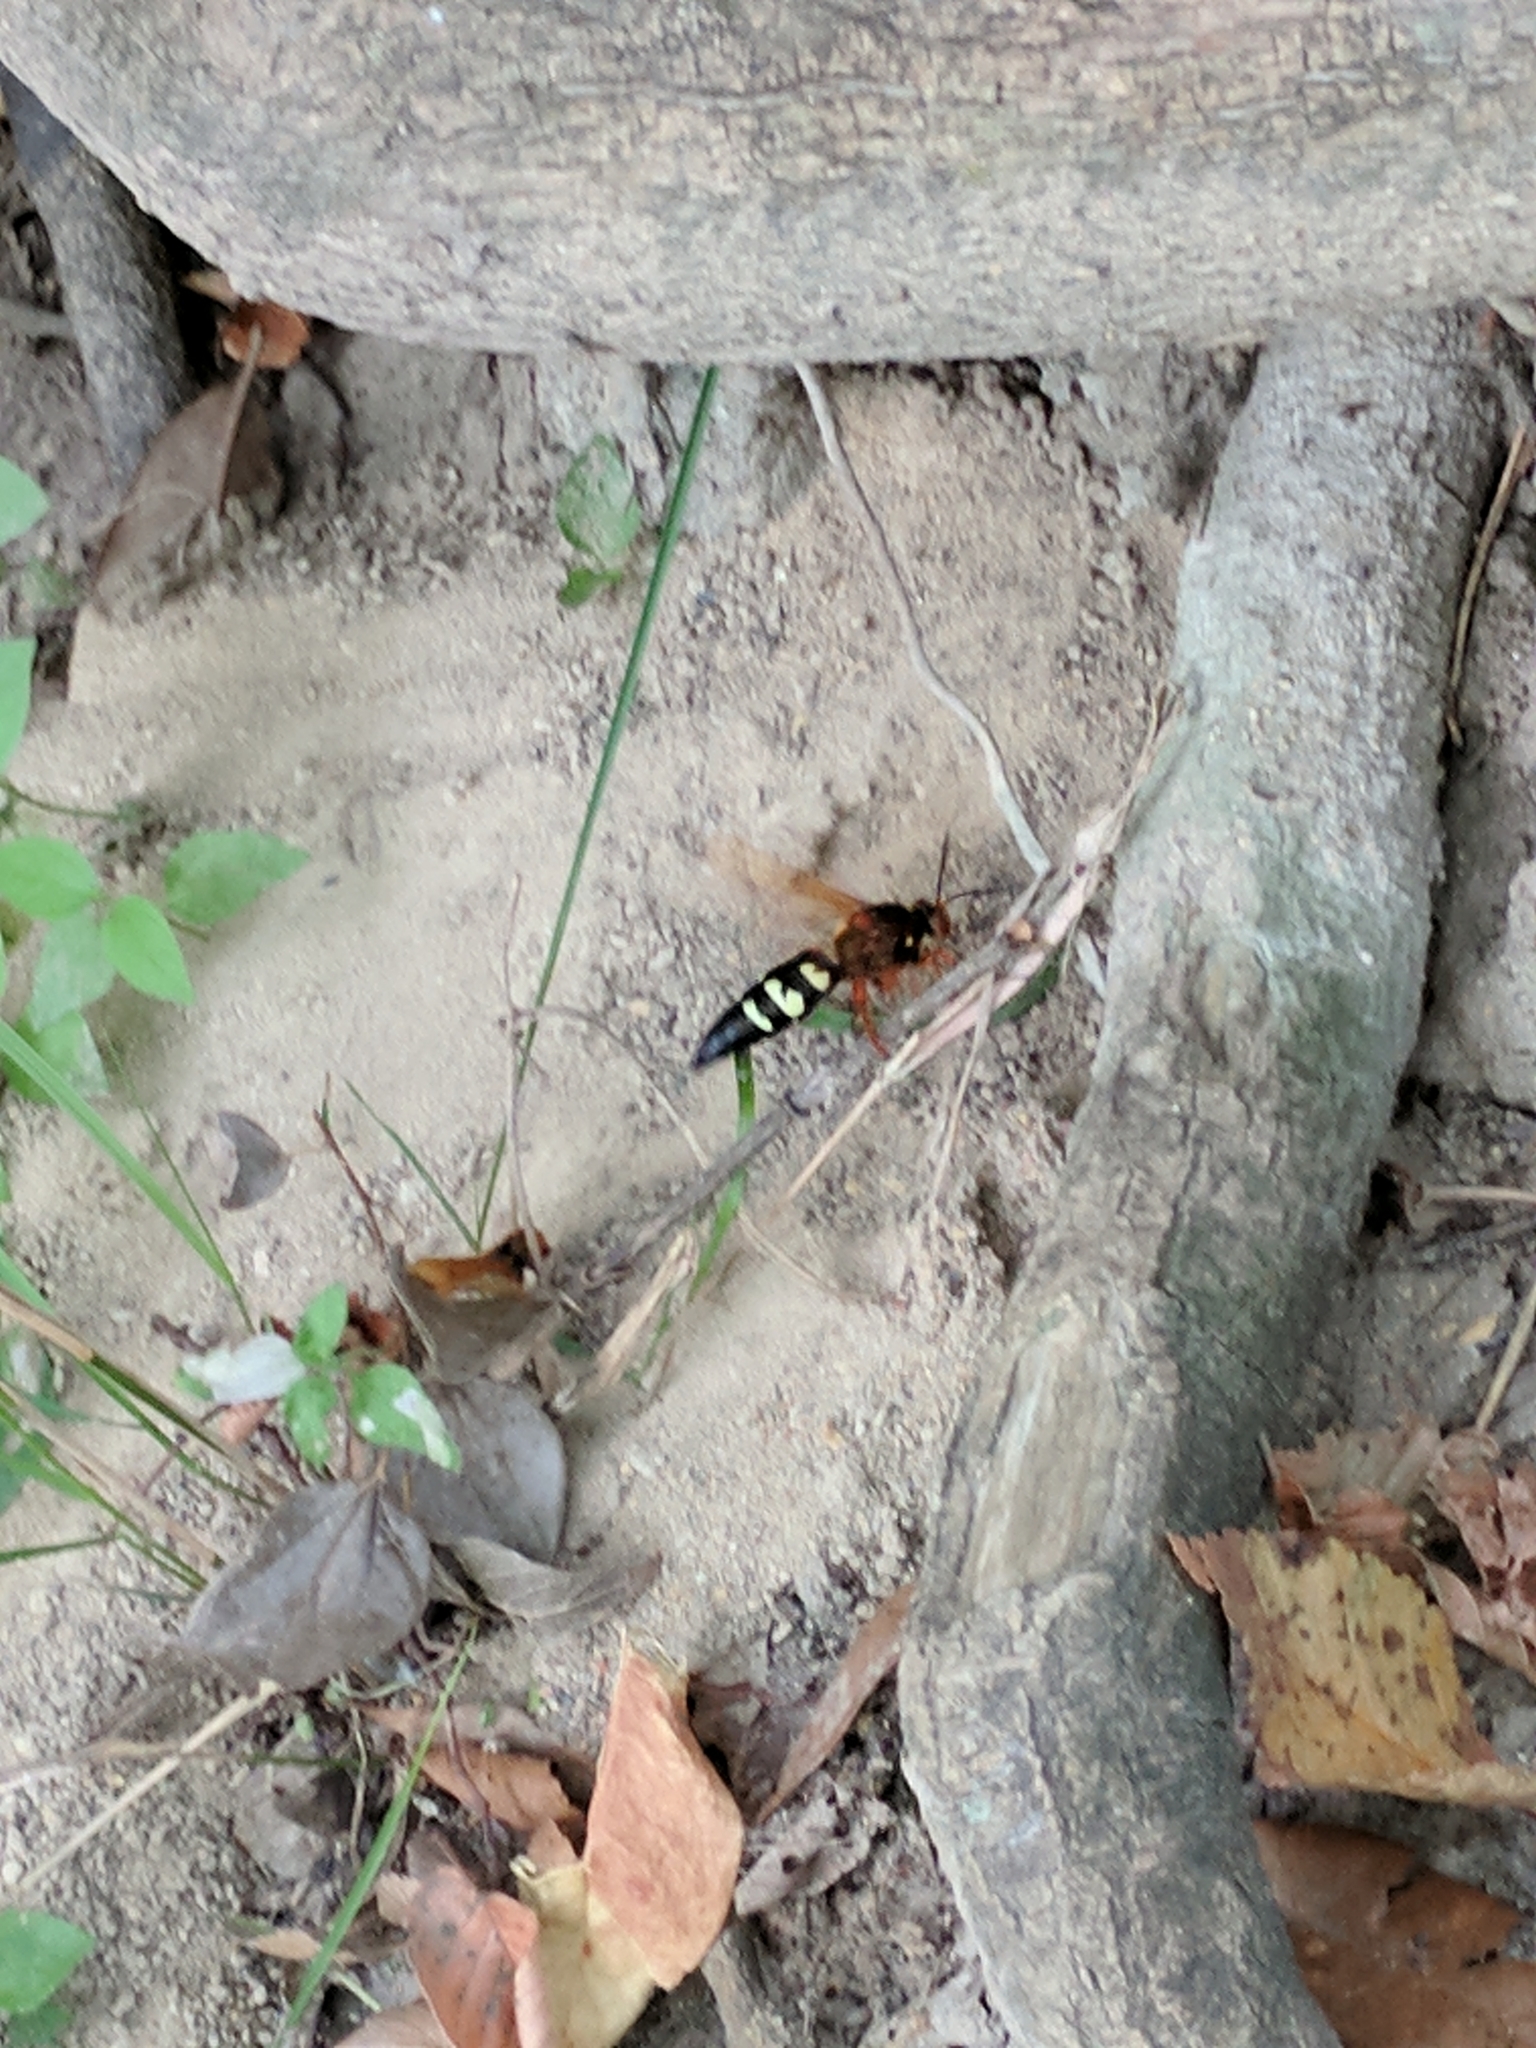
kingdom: Animalia
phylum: Arthropoda
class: Insecta
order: Hymenoptera
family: Crabronidae
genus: Sphecius
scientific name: Sphecius speciosus
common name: Cicada killer
